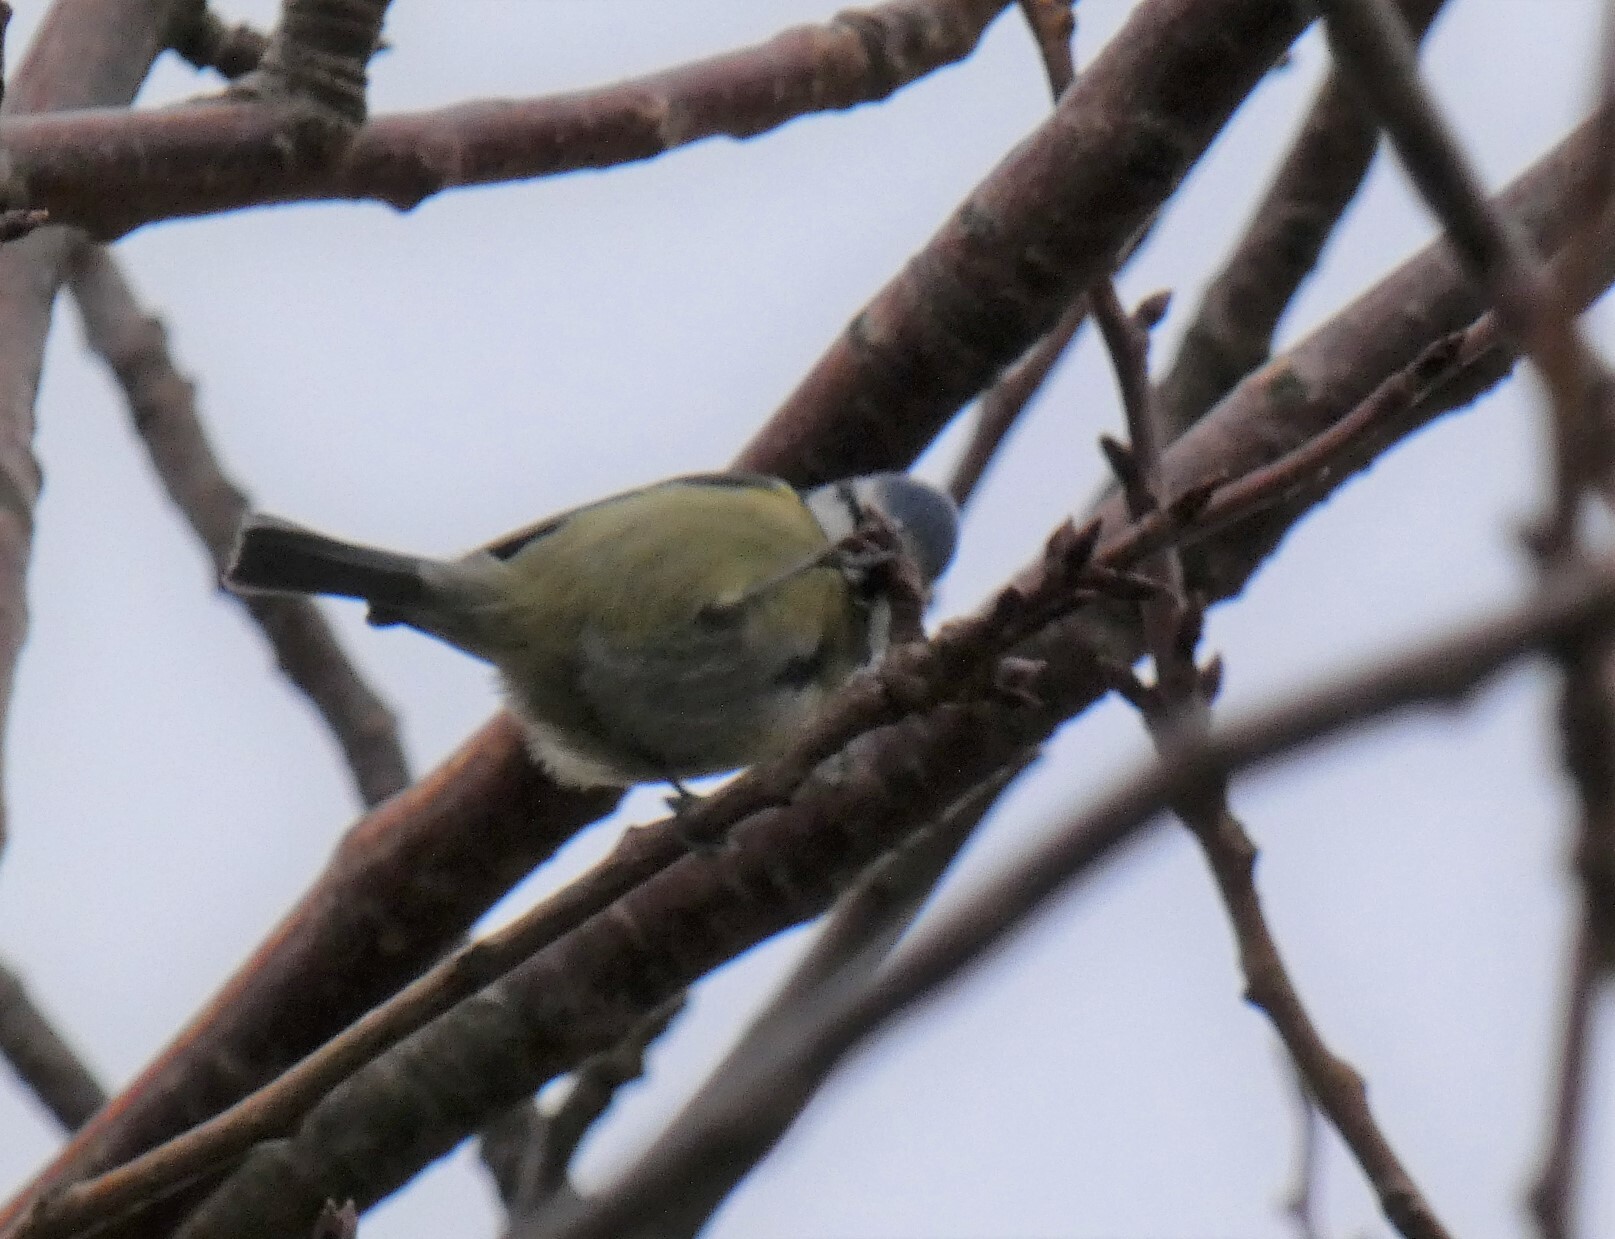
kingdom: Animalia
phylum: Chordata
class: Aves
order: Passeriformes
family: Paridae
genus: Cyanistes
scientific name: Cyanistes caeruleus
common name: Eurasian blue tit
